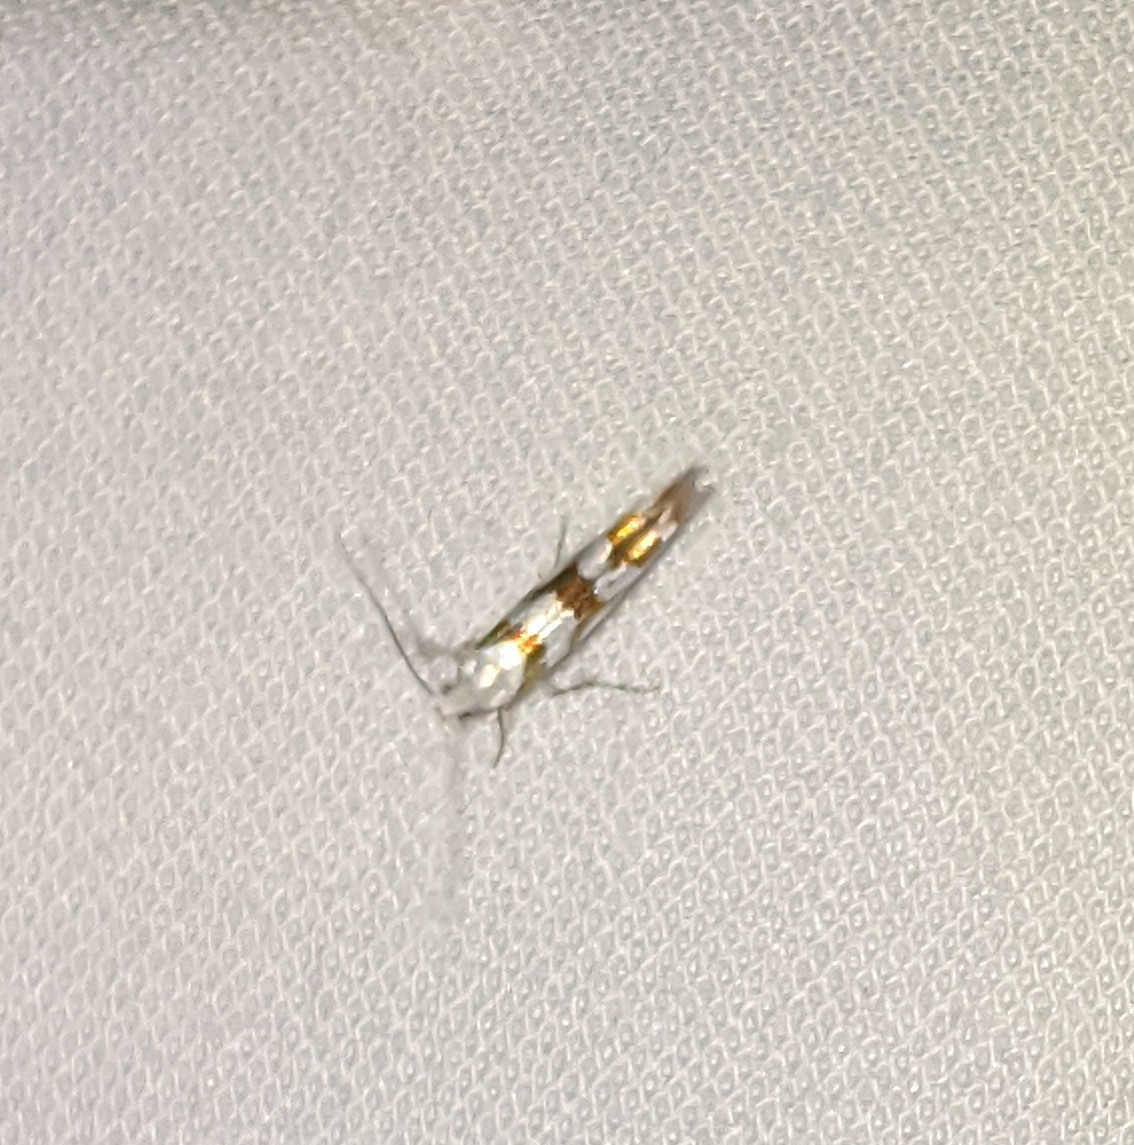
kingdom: Animalia
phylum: Arthropoda
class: Insecta
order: Lepidoptera
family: Argyresthiidae
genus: Argyresthia
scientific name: Argyresthia calliphanes
